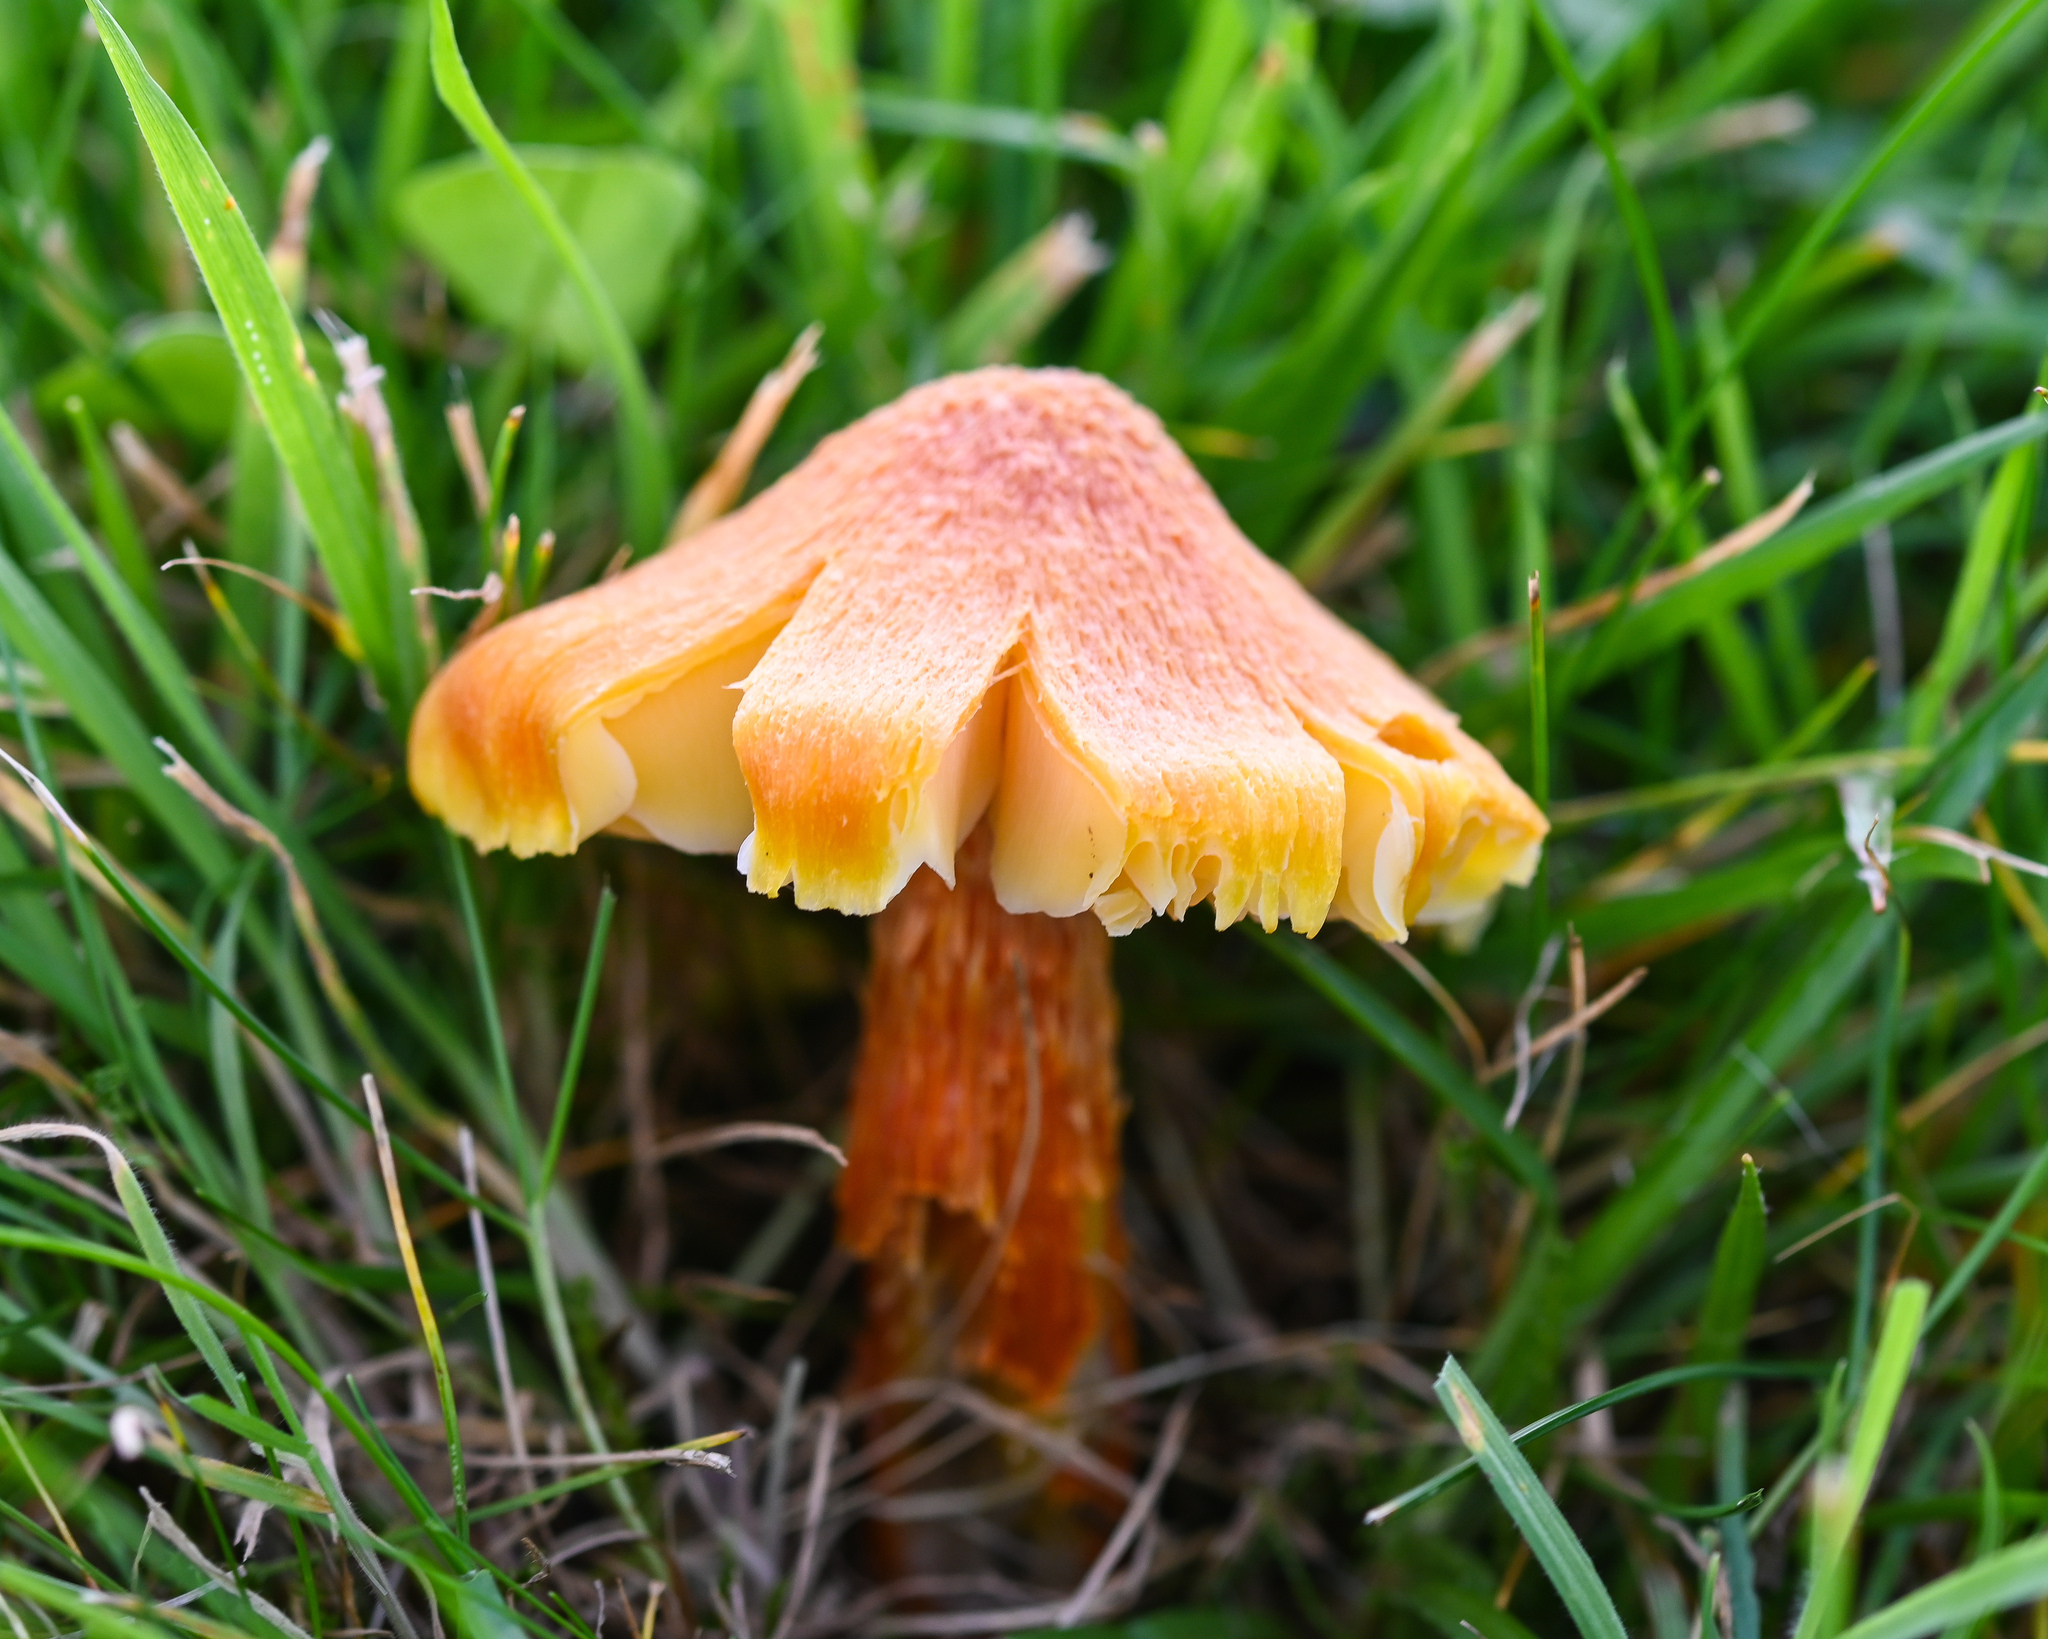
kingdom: Fungi
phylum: Basidiomycota
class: Agaricomycetes
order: Agaricales
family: Hygrophoraceae
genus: Hygrocybe
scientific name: Hygrocybe intermedia
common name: Fibrous waxcap
